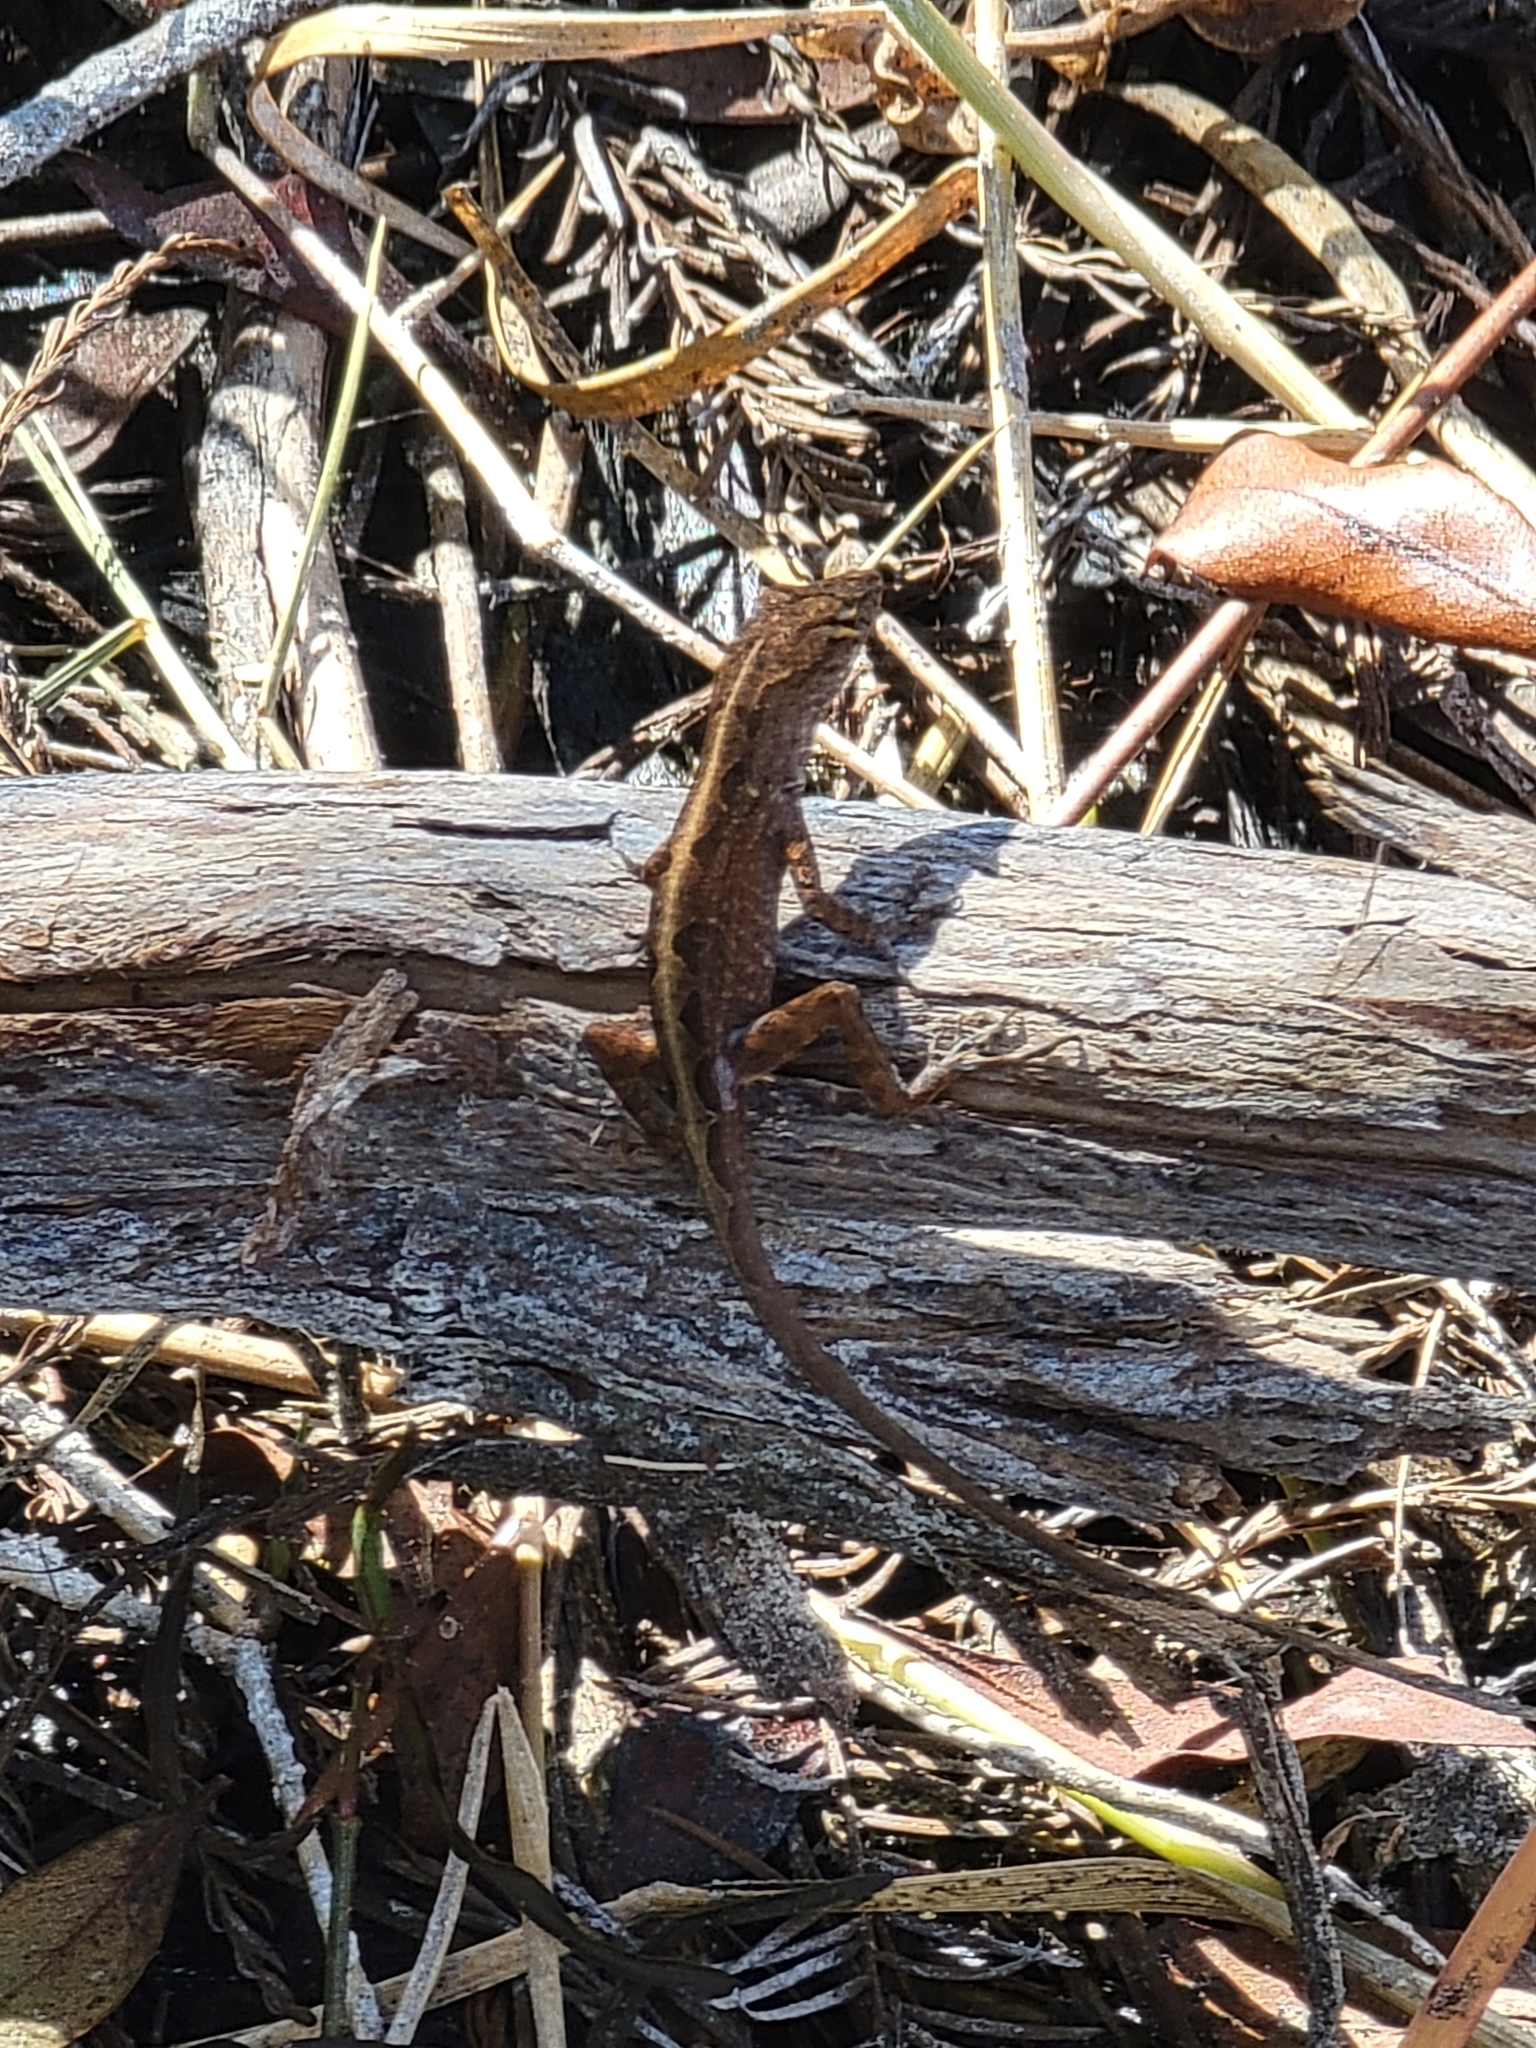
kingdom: Animalia
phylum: Chordata
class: Squamata
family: Dactyloidae
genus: Anolis
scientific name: Anolis sagrei
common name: Brown anole
